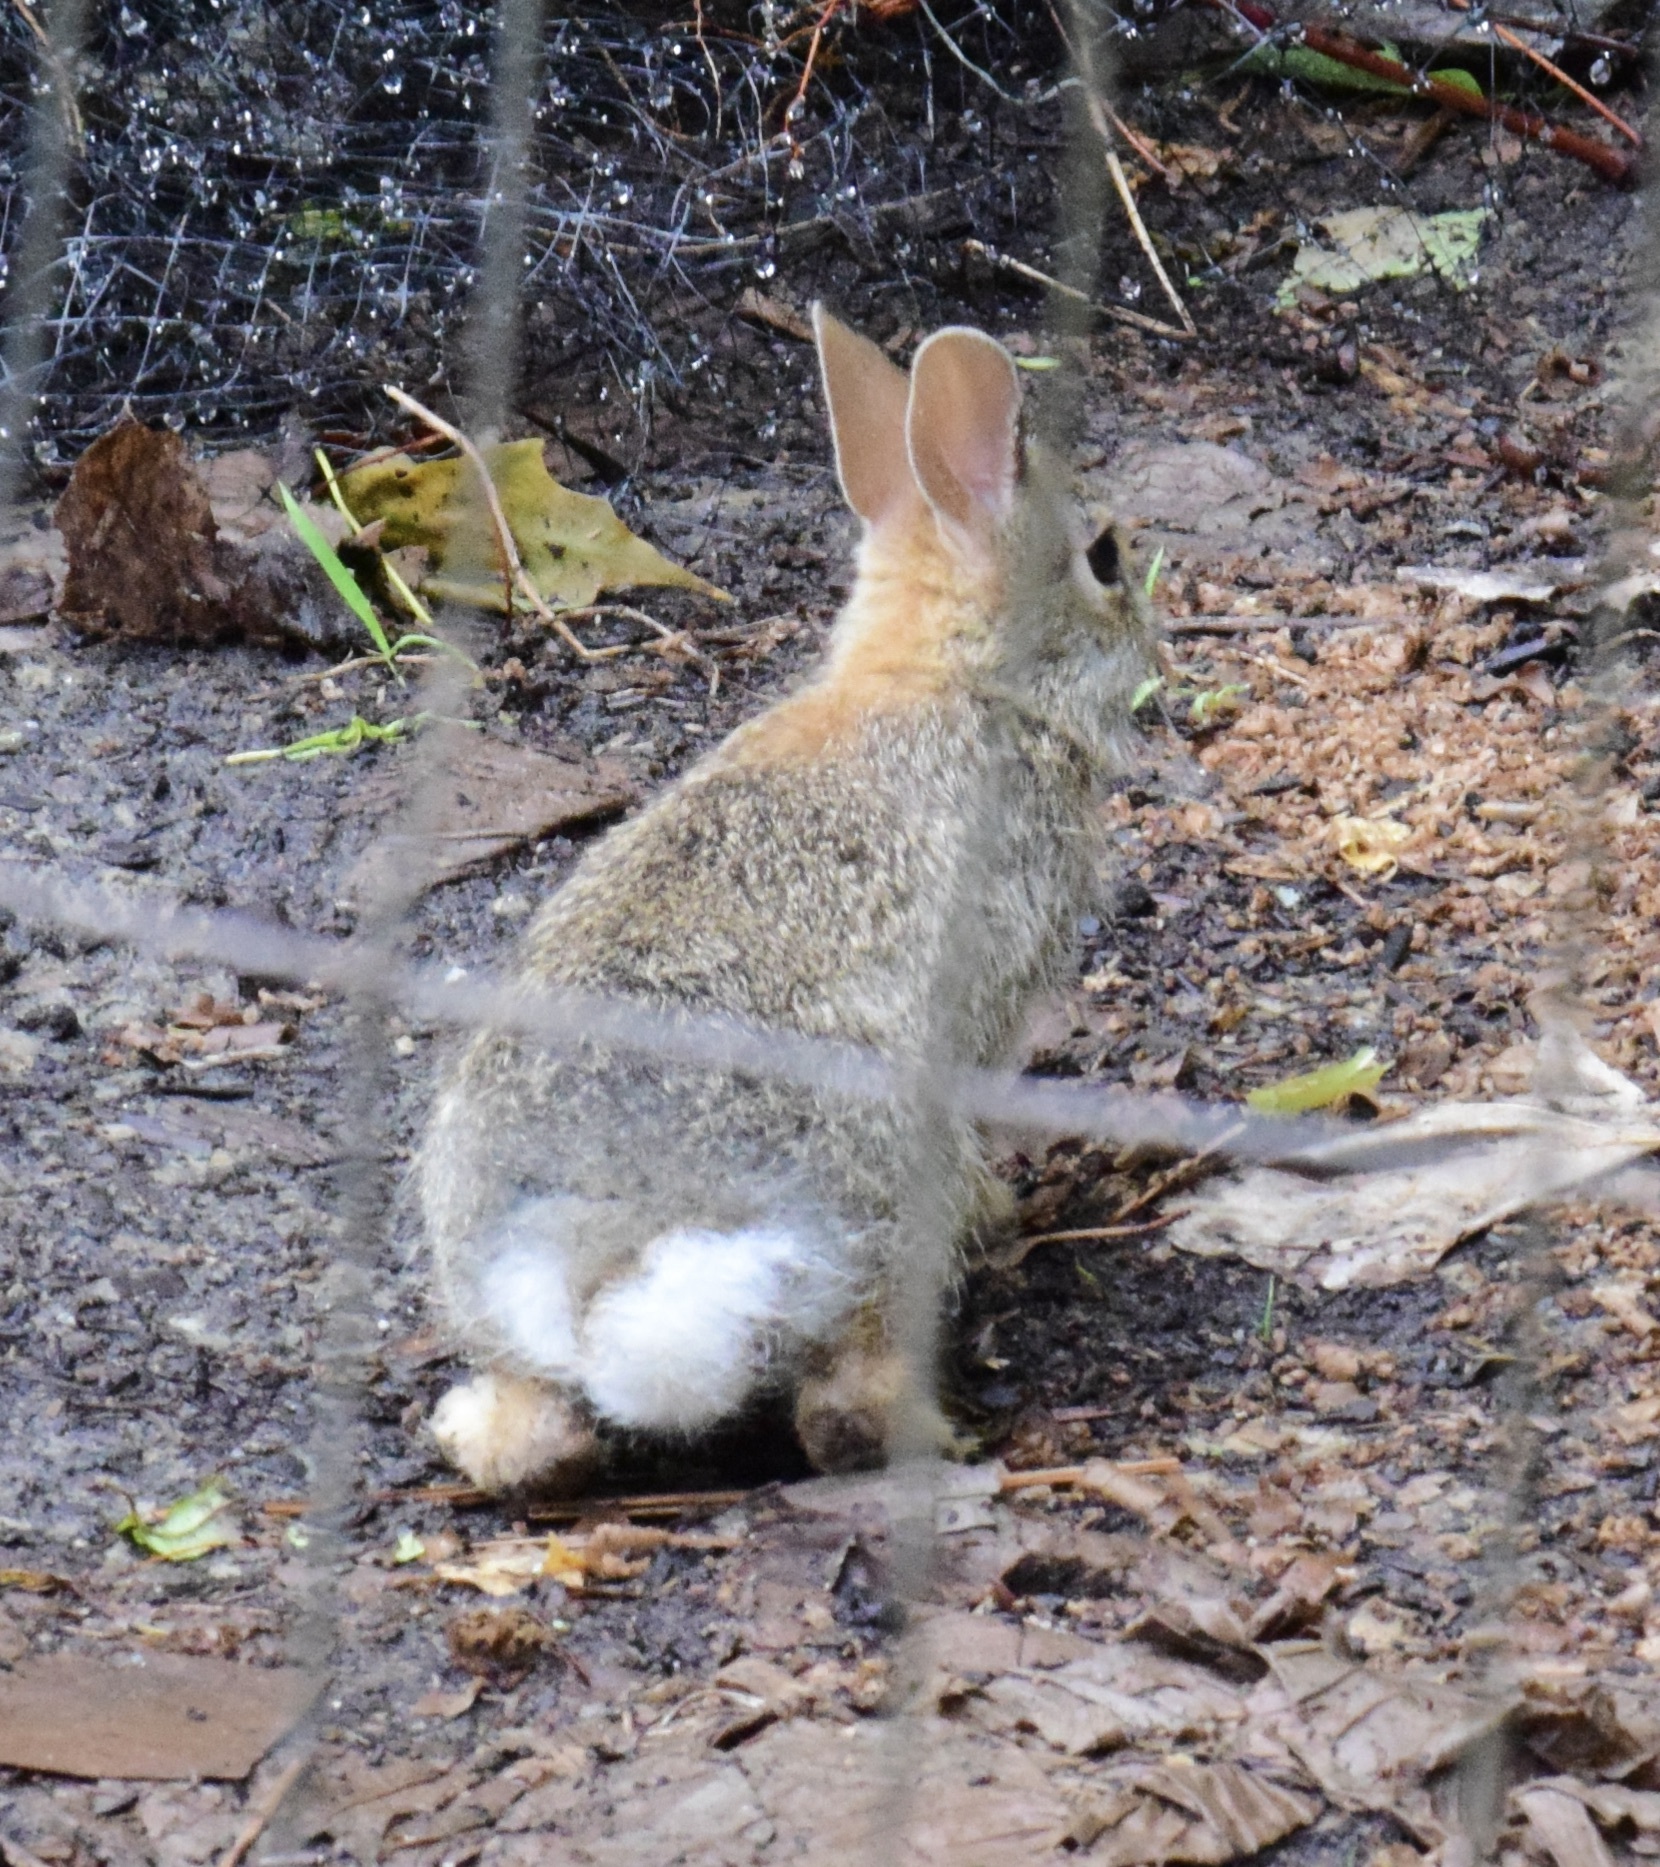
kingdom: Animalia
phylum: Chordata
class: Mammalia
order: Lagomorpha
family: Leporidae
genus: Sylvilagus
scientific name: Sylvilagus floridanus
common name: Eastern cottontail
